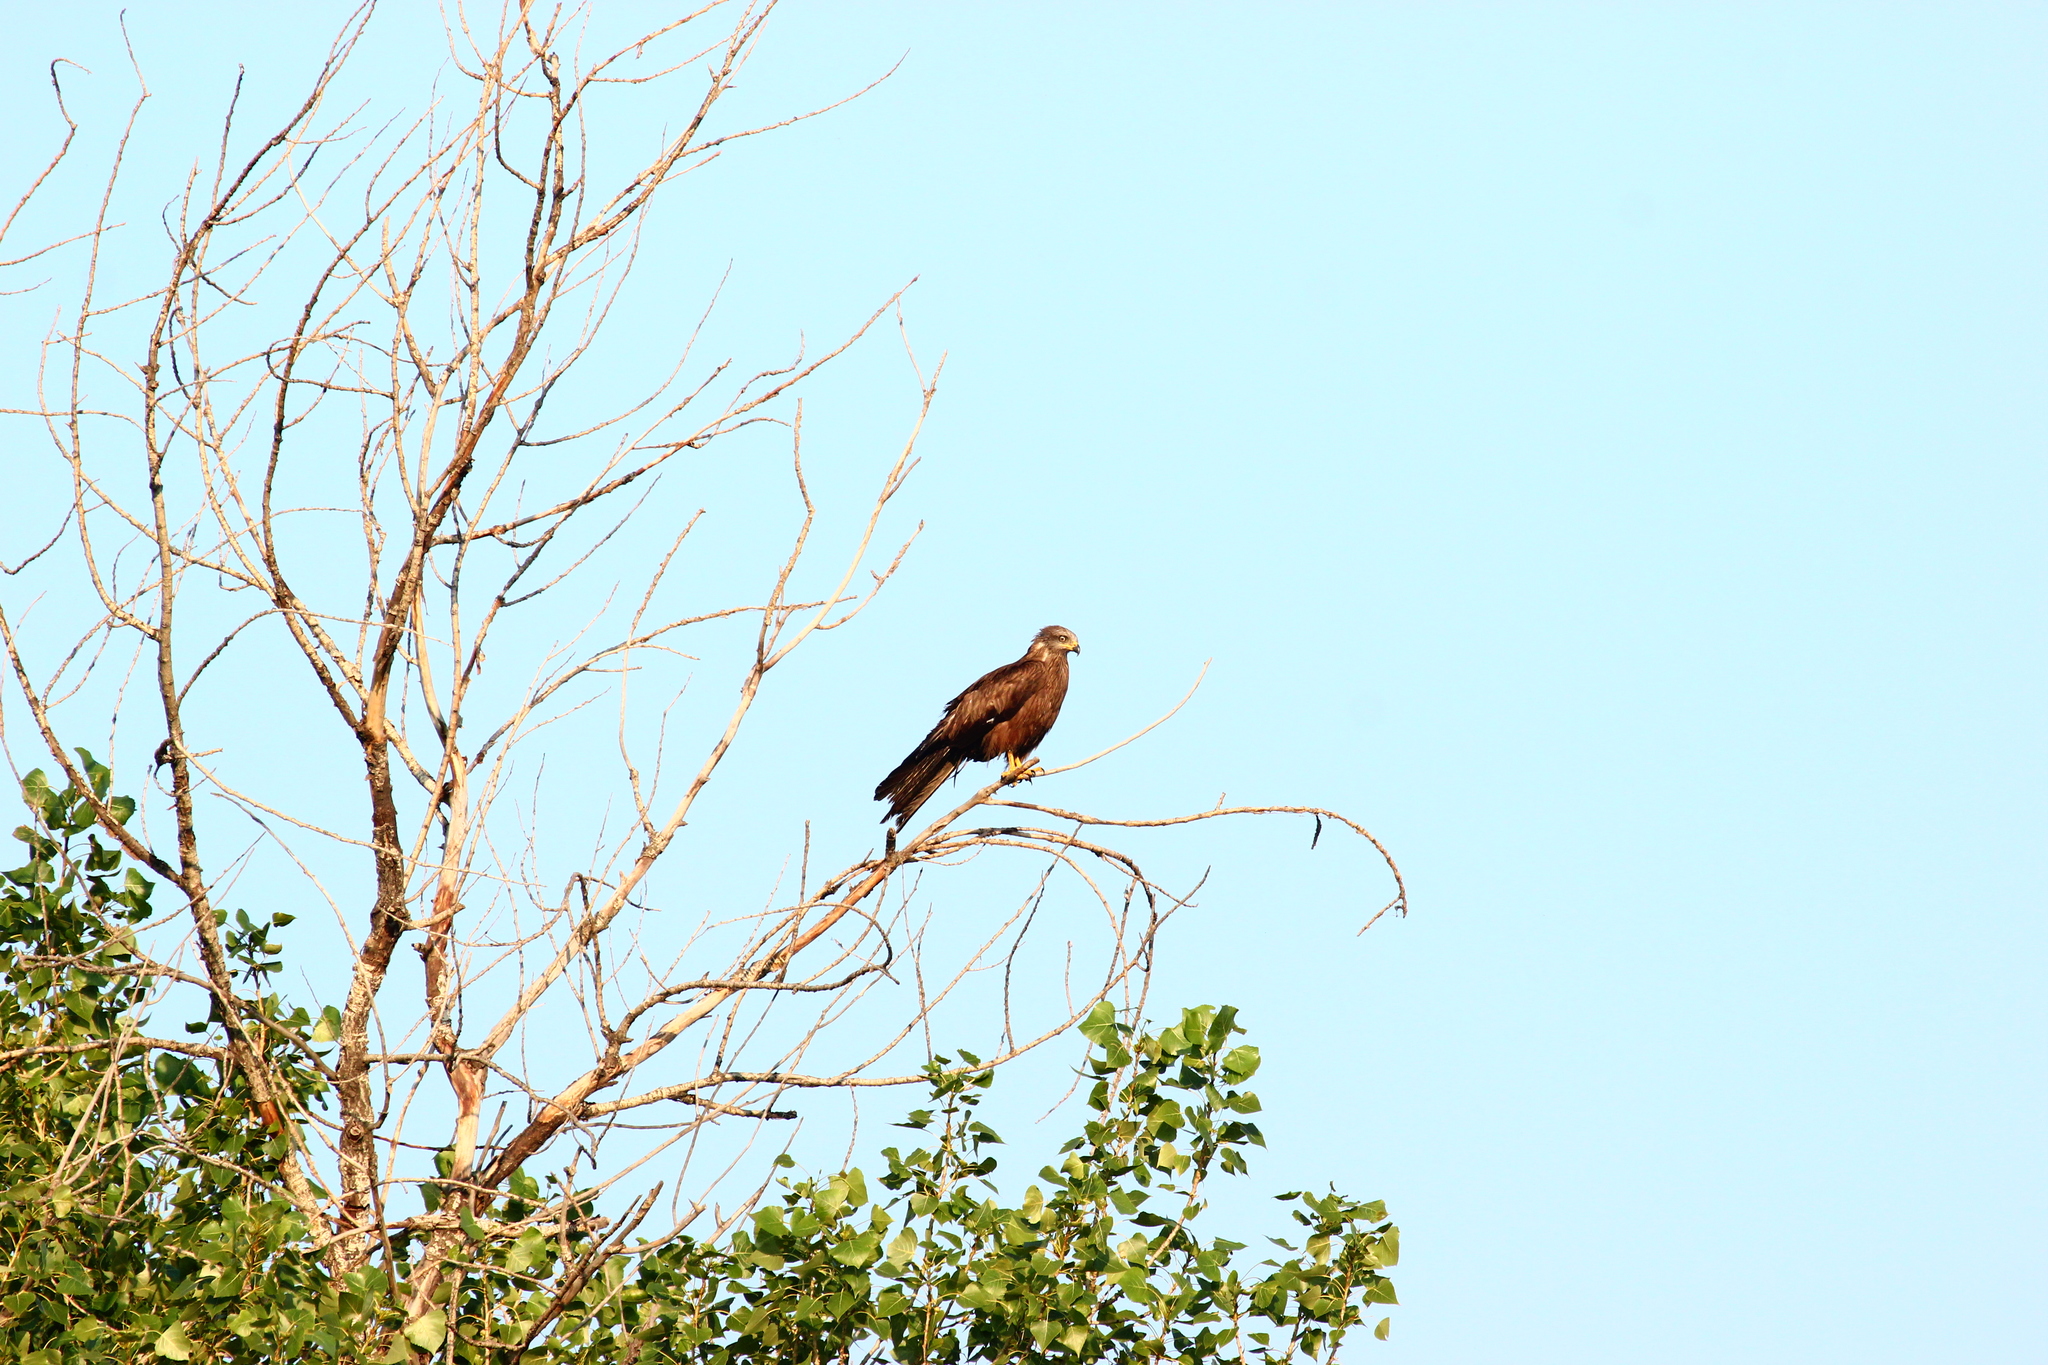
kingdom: Animalia
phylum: Chordata
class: Aves
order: Accipitriformes
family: Accipitridae
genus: Milvus
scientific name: Milvus migrans
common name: Black kite
